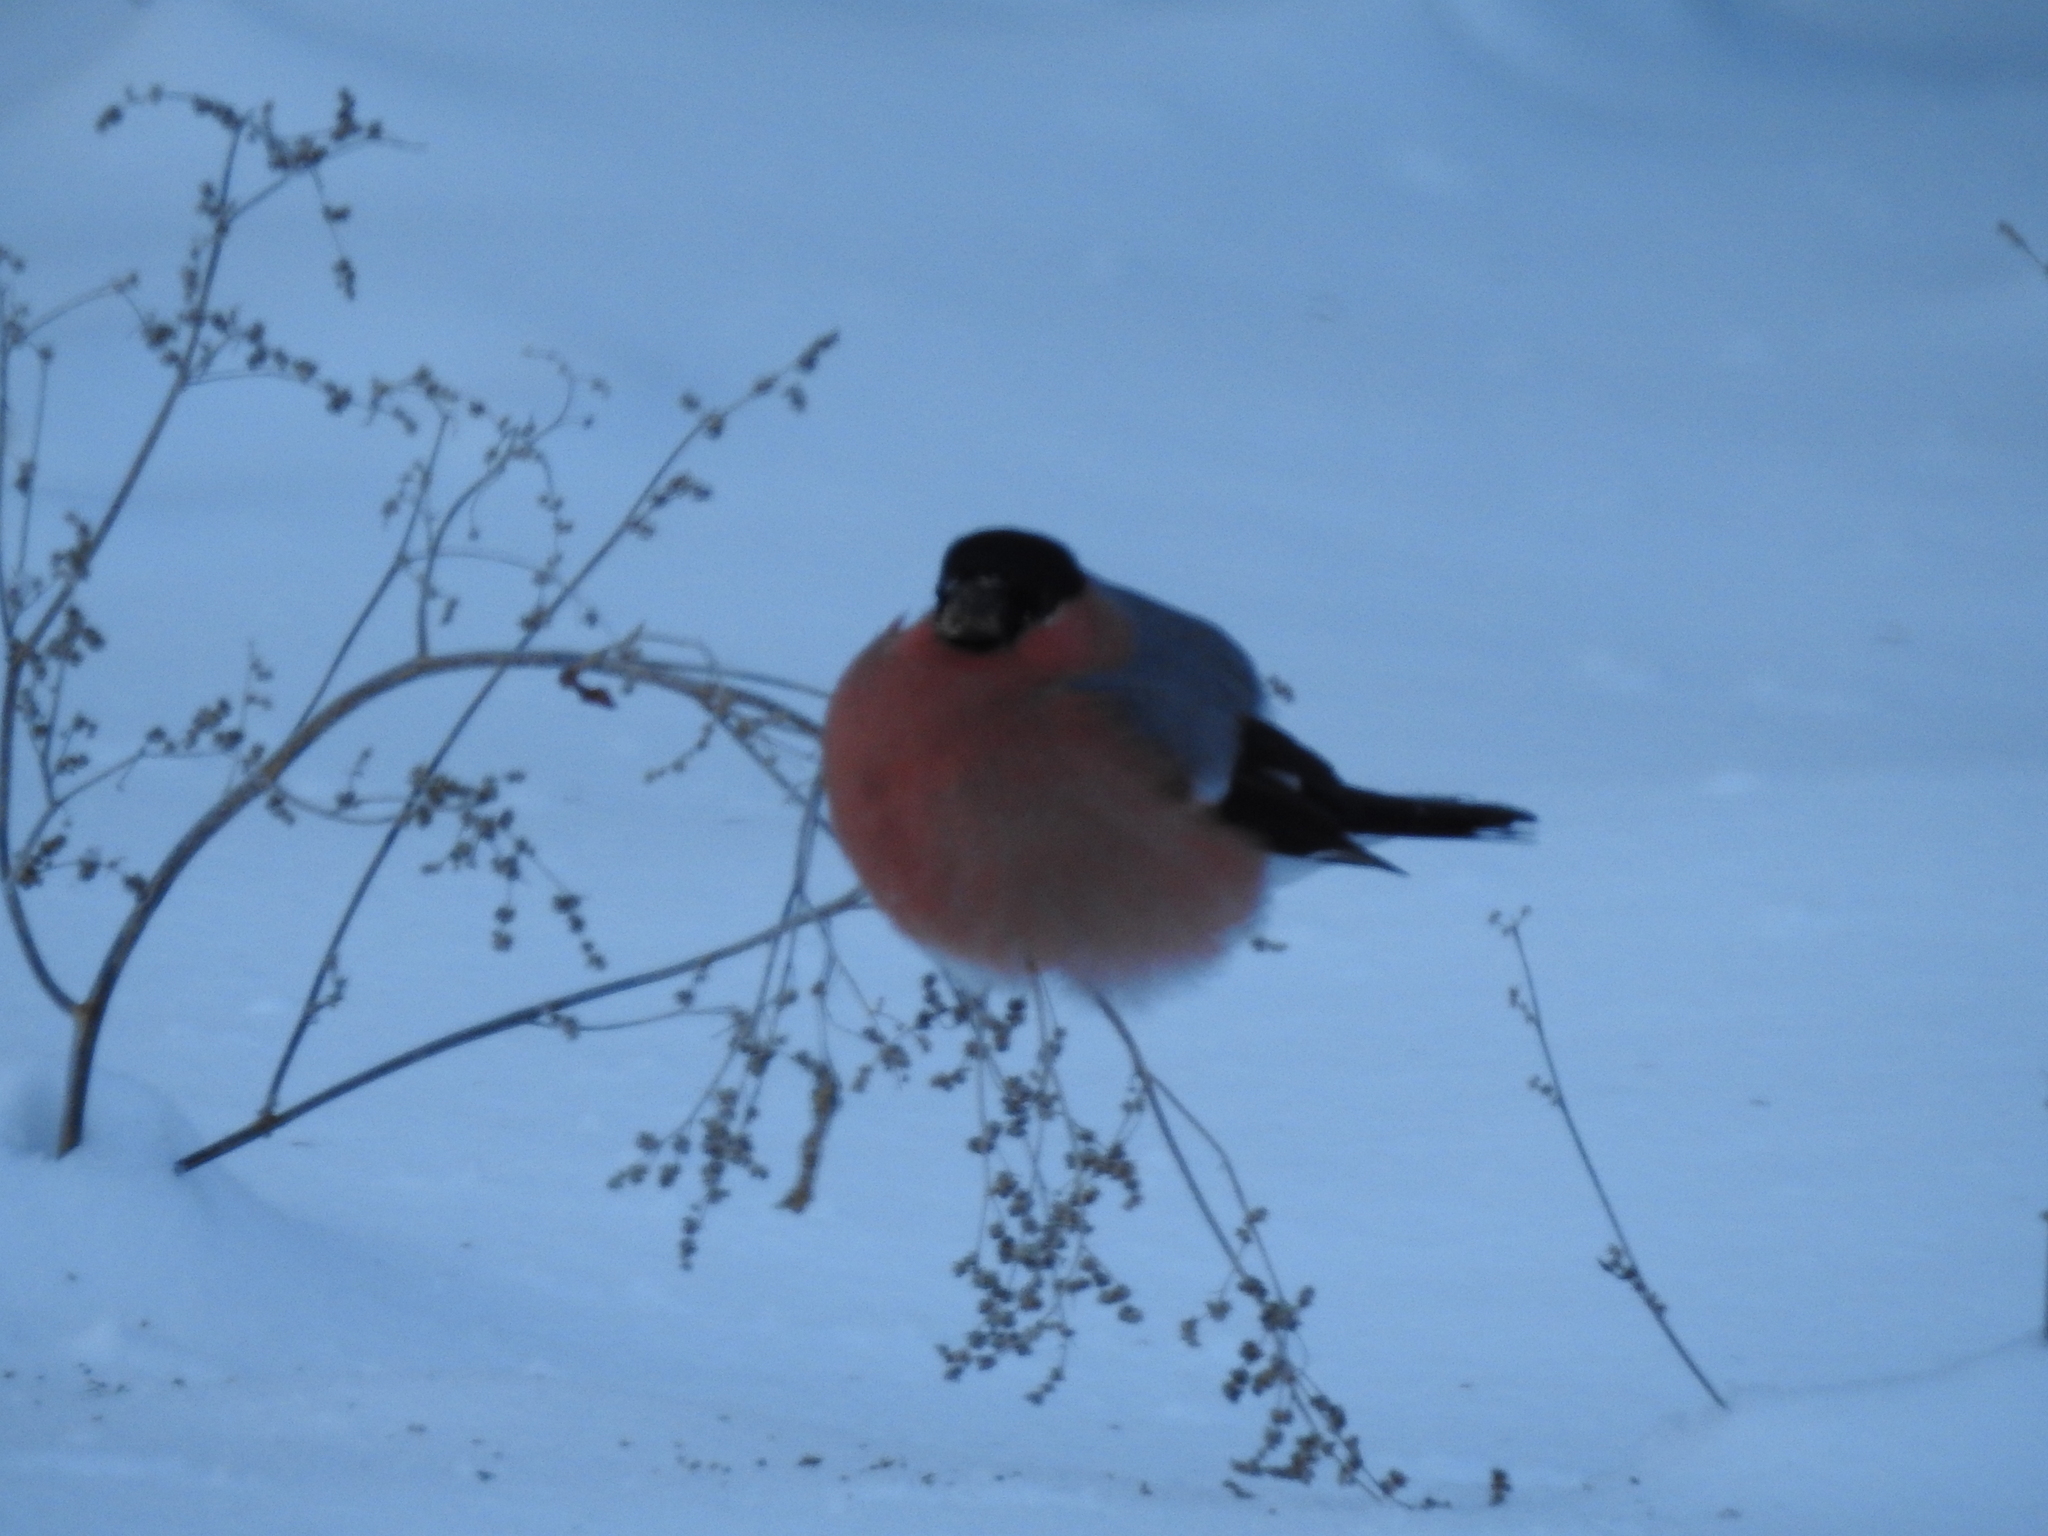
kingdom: Animalia
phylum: Chordata
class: Aves
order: Passeriformes
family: Fringillidae
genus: Pyrrhula
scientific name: Pyrrhula pyrrhula
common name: Eurasian bullfinch
